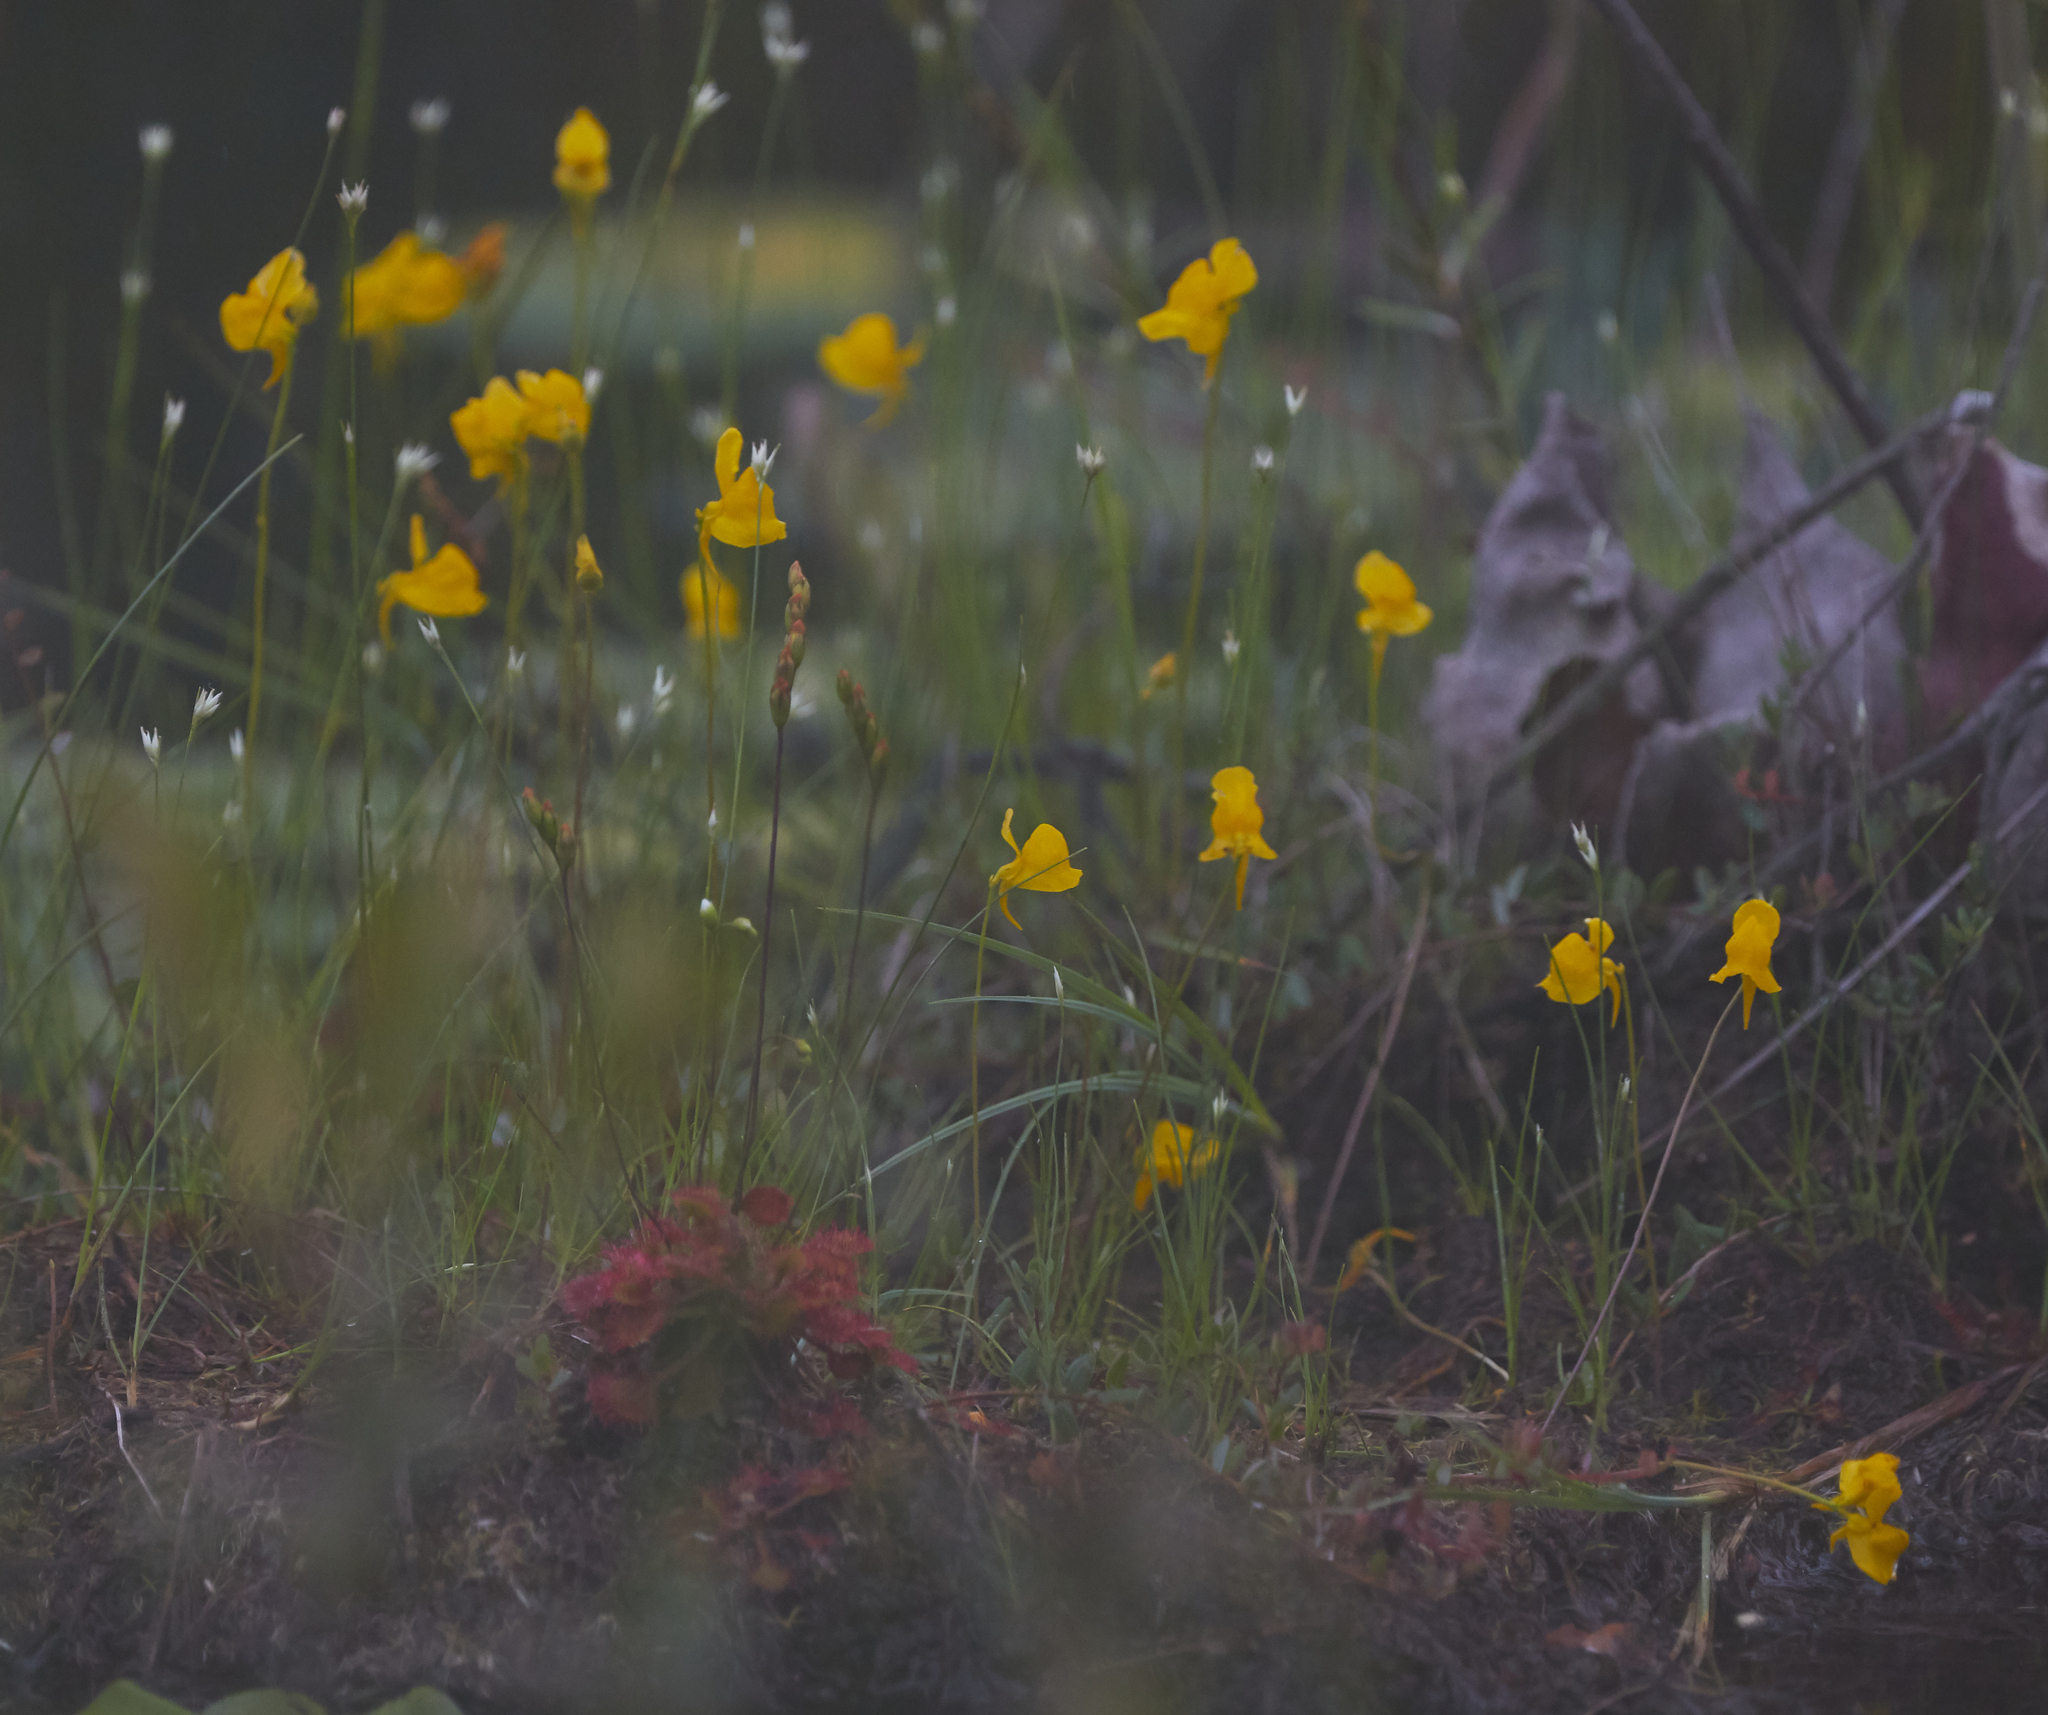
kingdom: Plantae
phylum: Tracheophyta
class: Magnoliopsida
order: Lamiales
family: Lentibulariaceae
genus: Utricularia
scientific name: Utricularia cornuta
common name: Horned bladderwort
